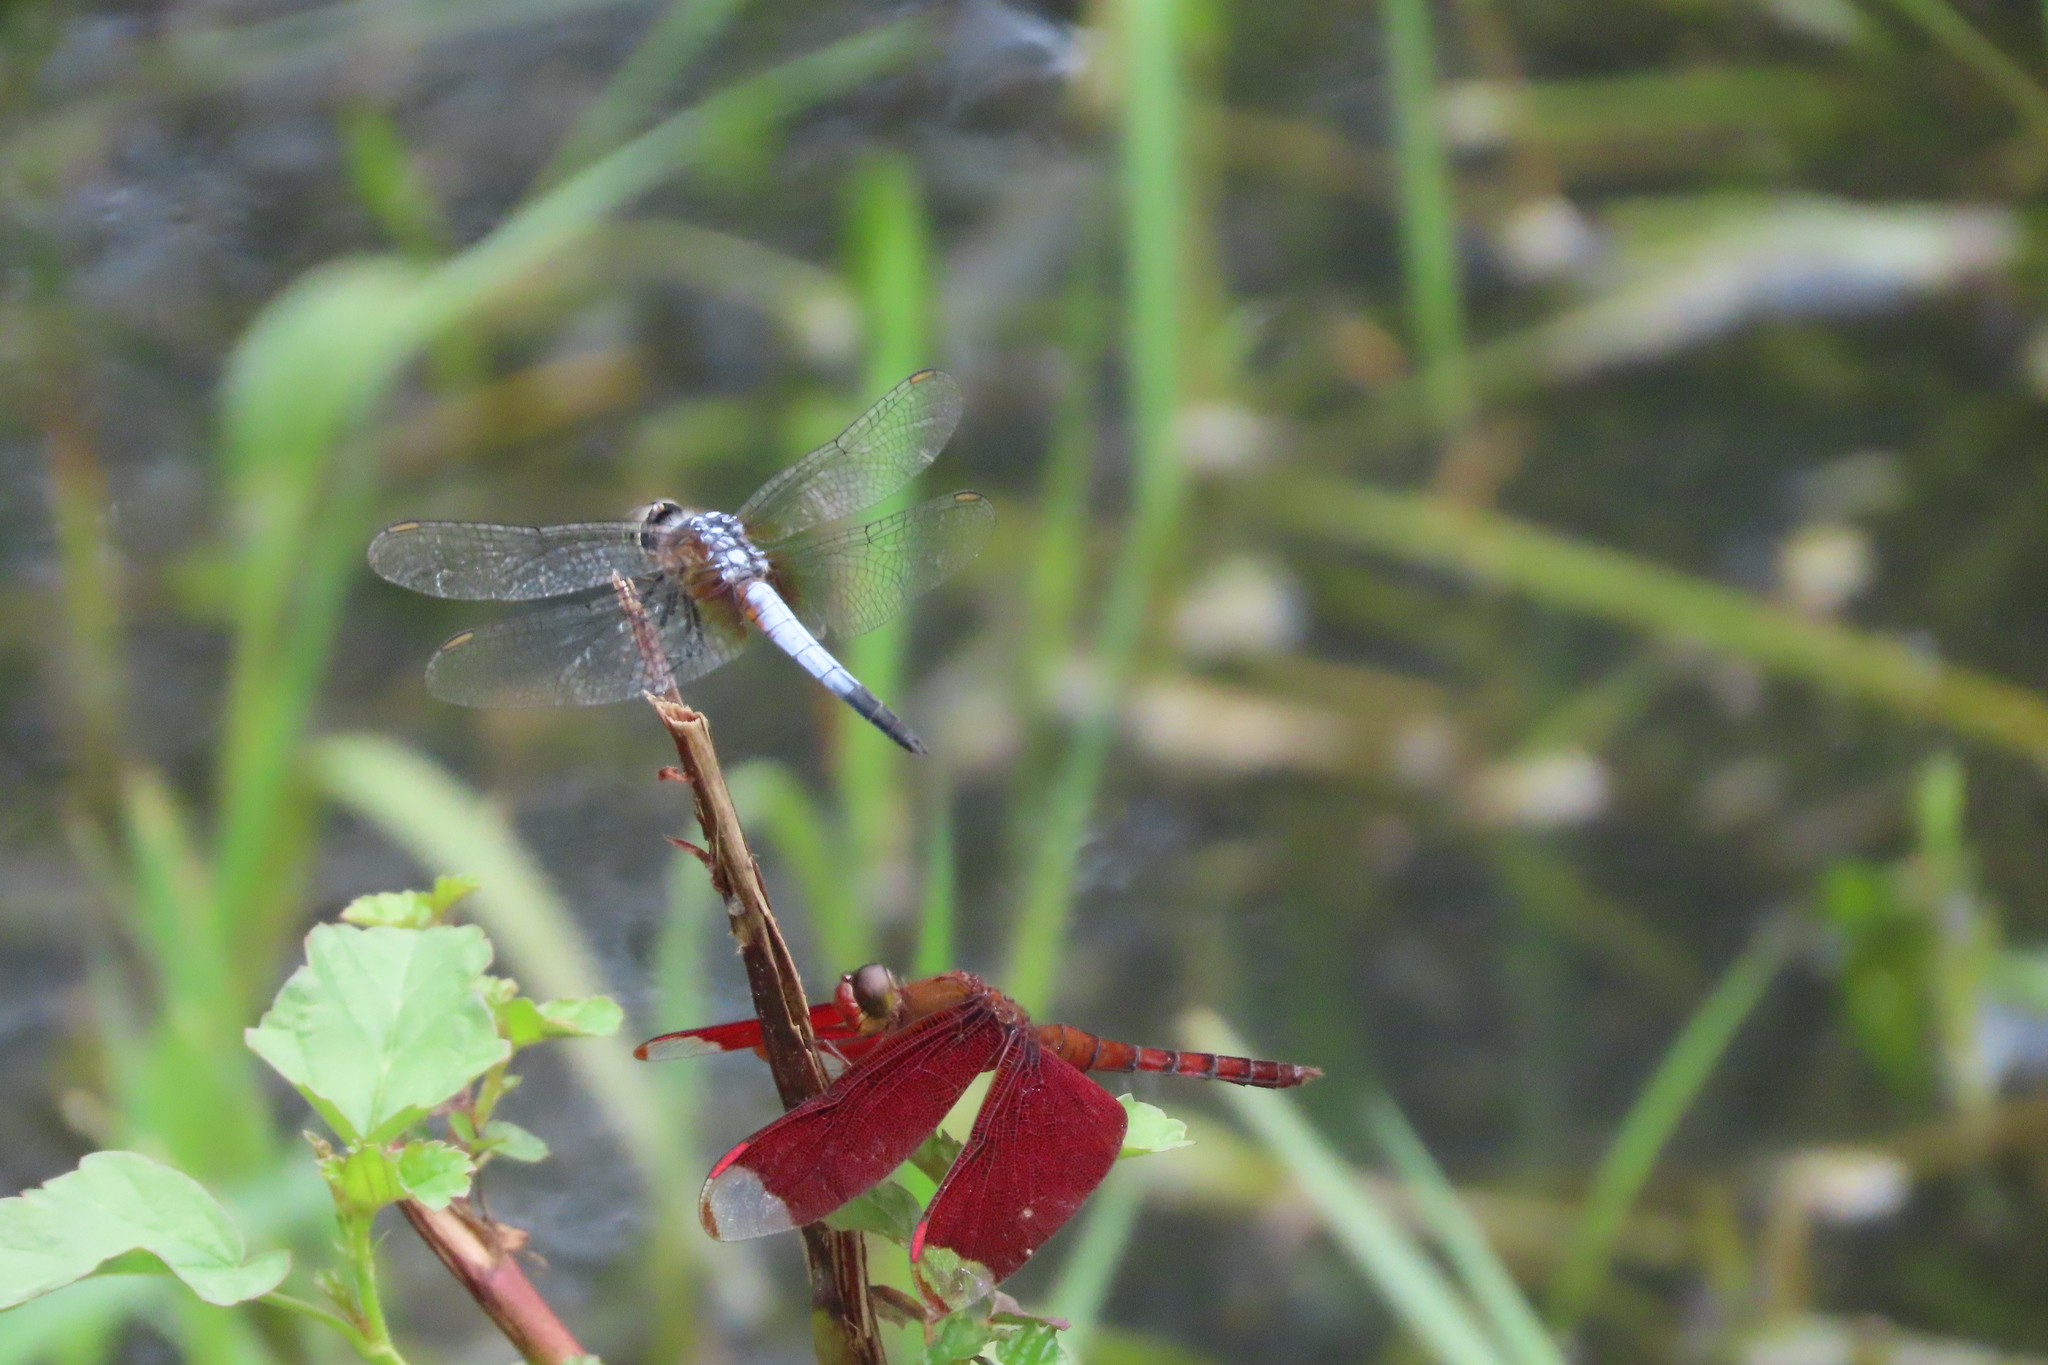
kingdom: Animalia
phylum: Arthropoda
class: Insecta
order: Odonata
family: Libellulidae
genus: Brachydiplax
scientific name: Brachydiplax chalybea
